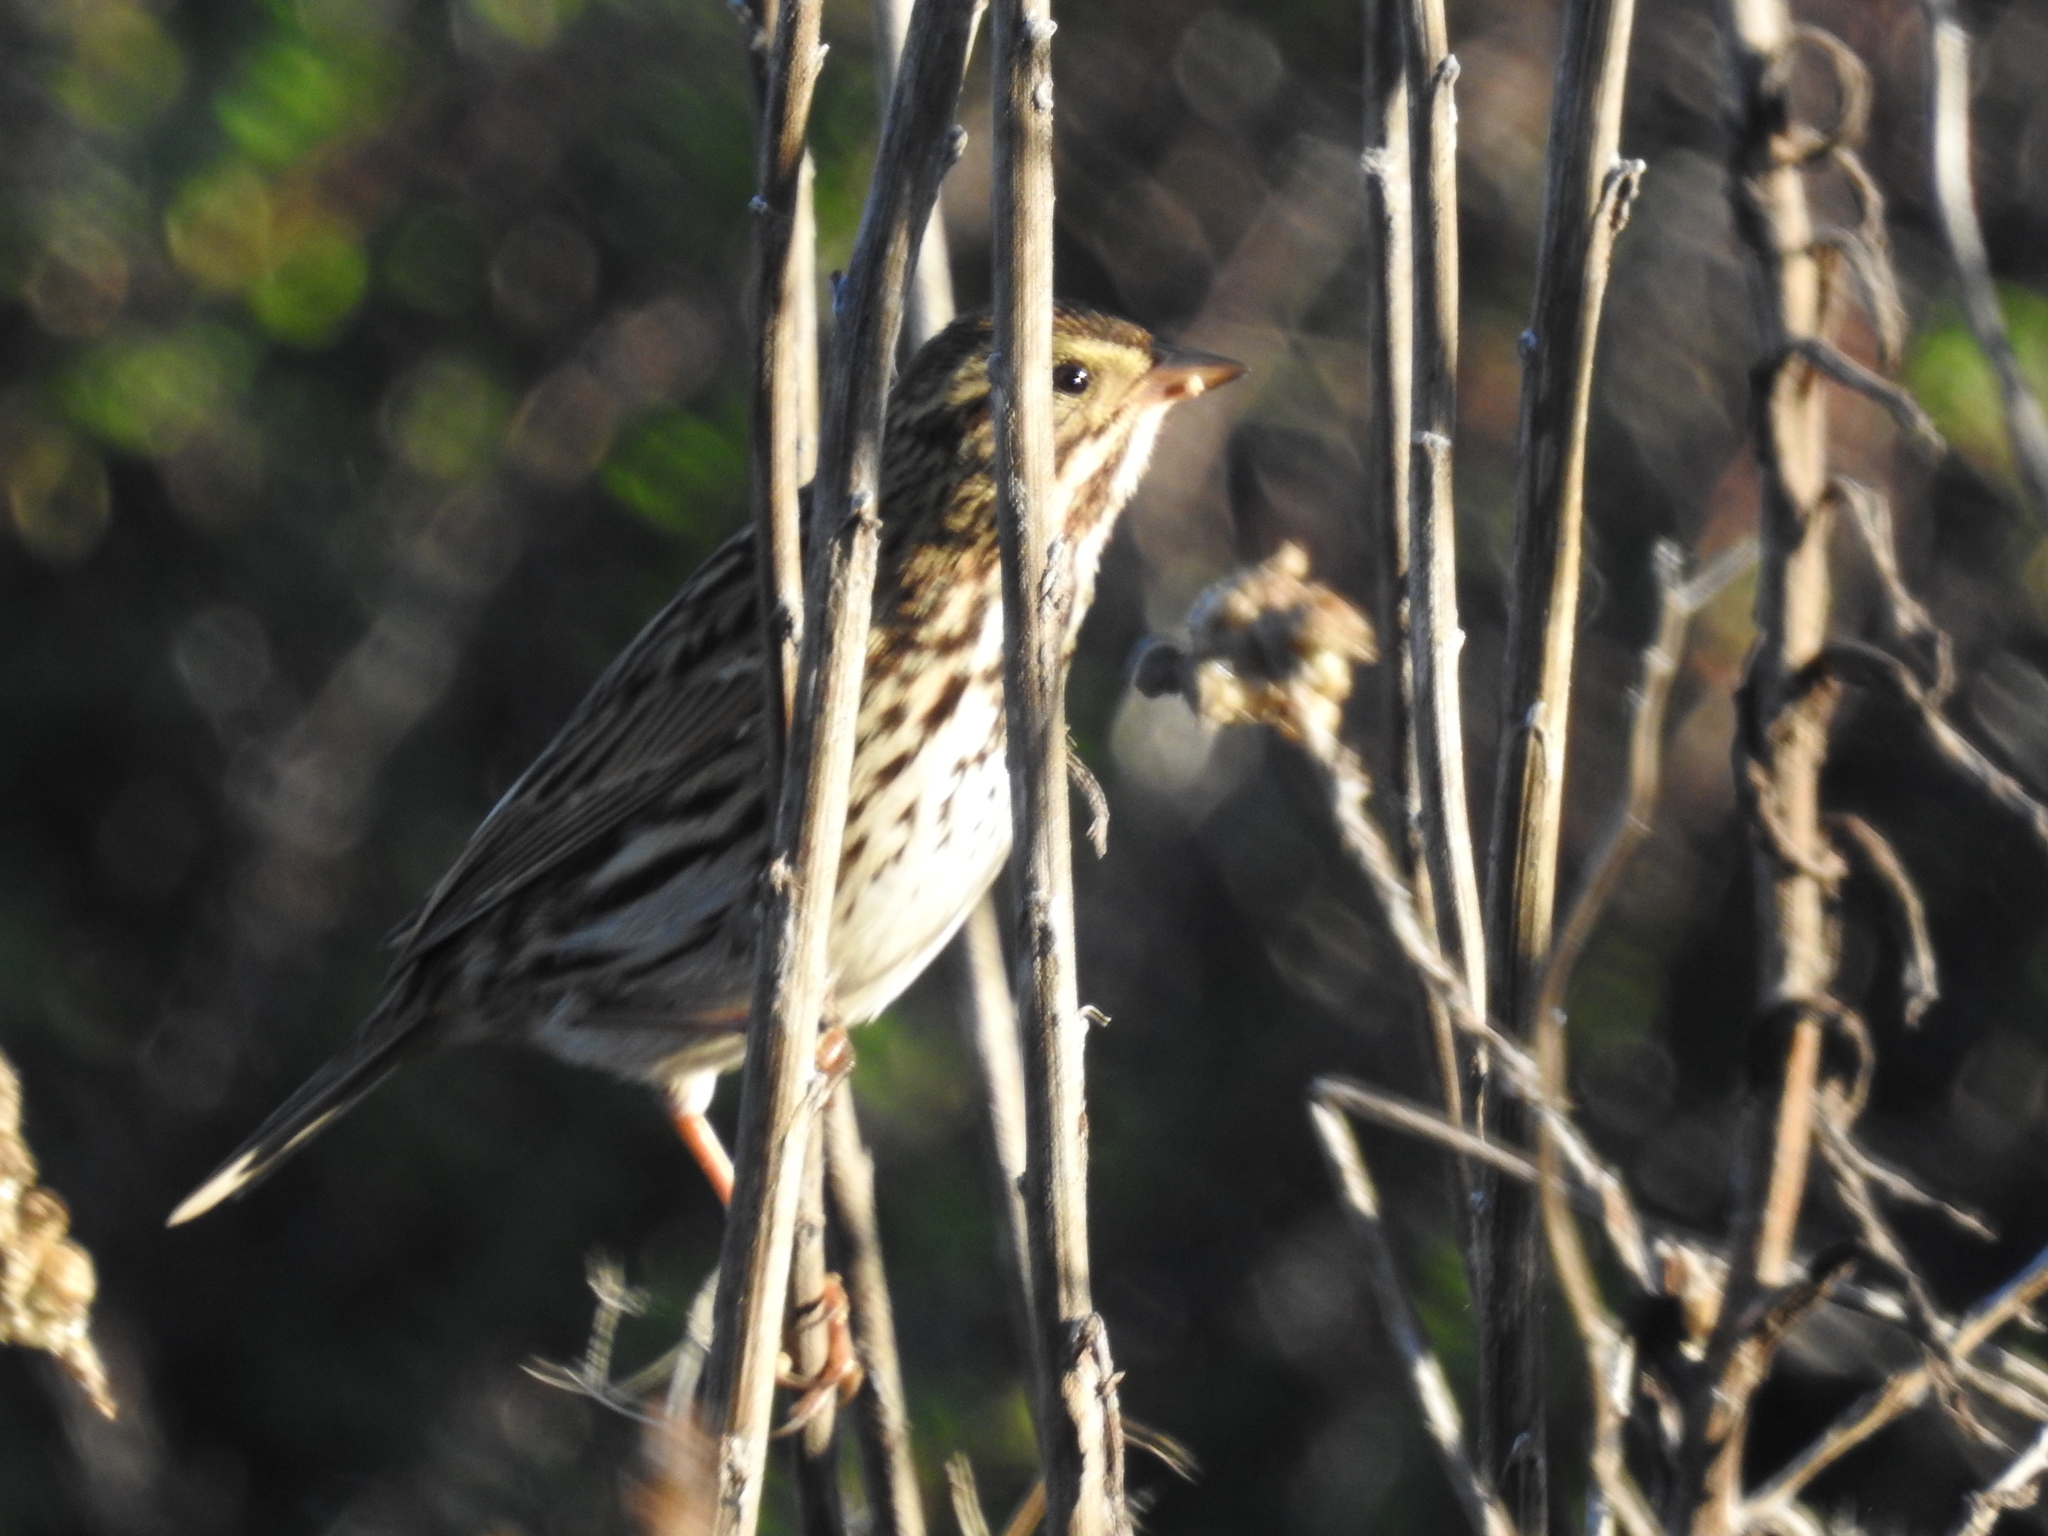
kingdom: Animalia
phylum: Chordata
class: Aves
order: Passeriformes
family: Passerellidae
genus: Passerculus
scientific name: Passerculus sandwichensis
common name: Savannah sparrow
